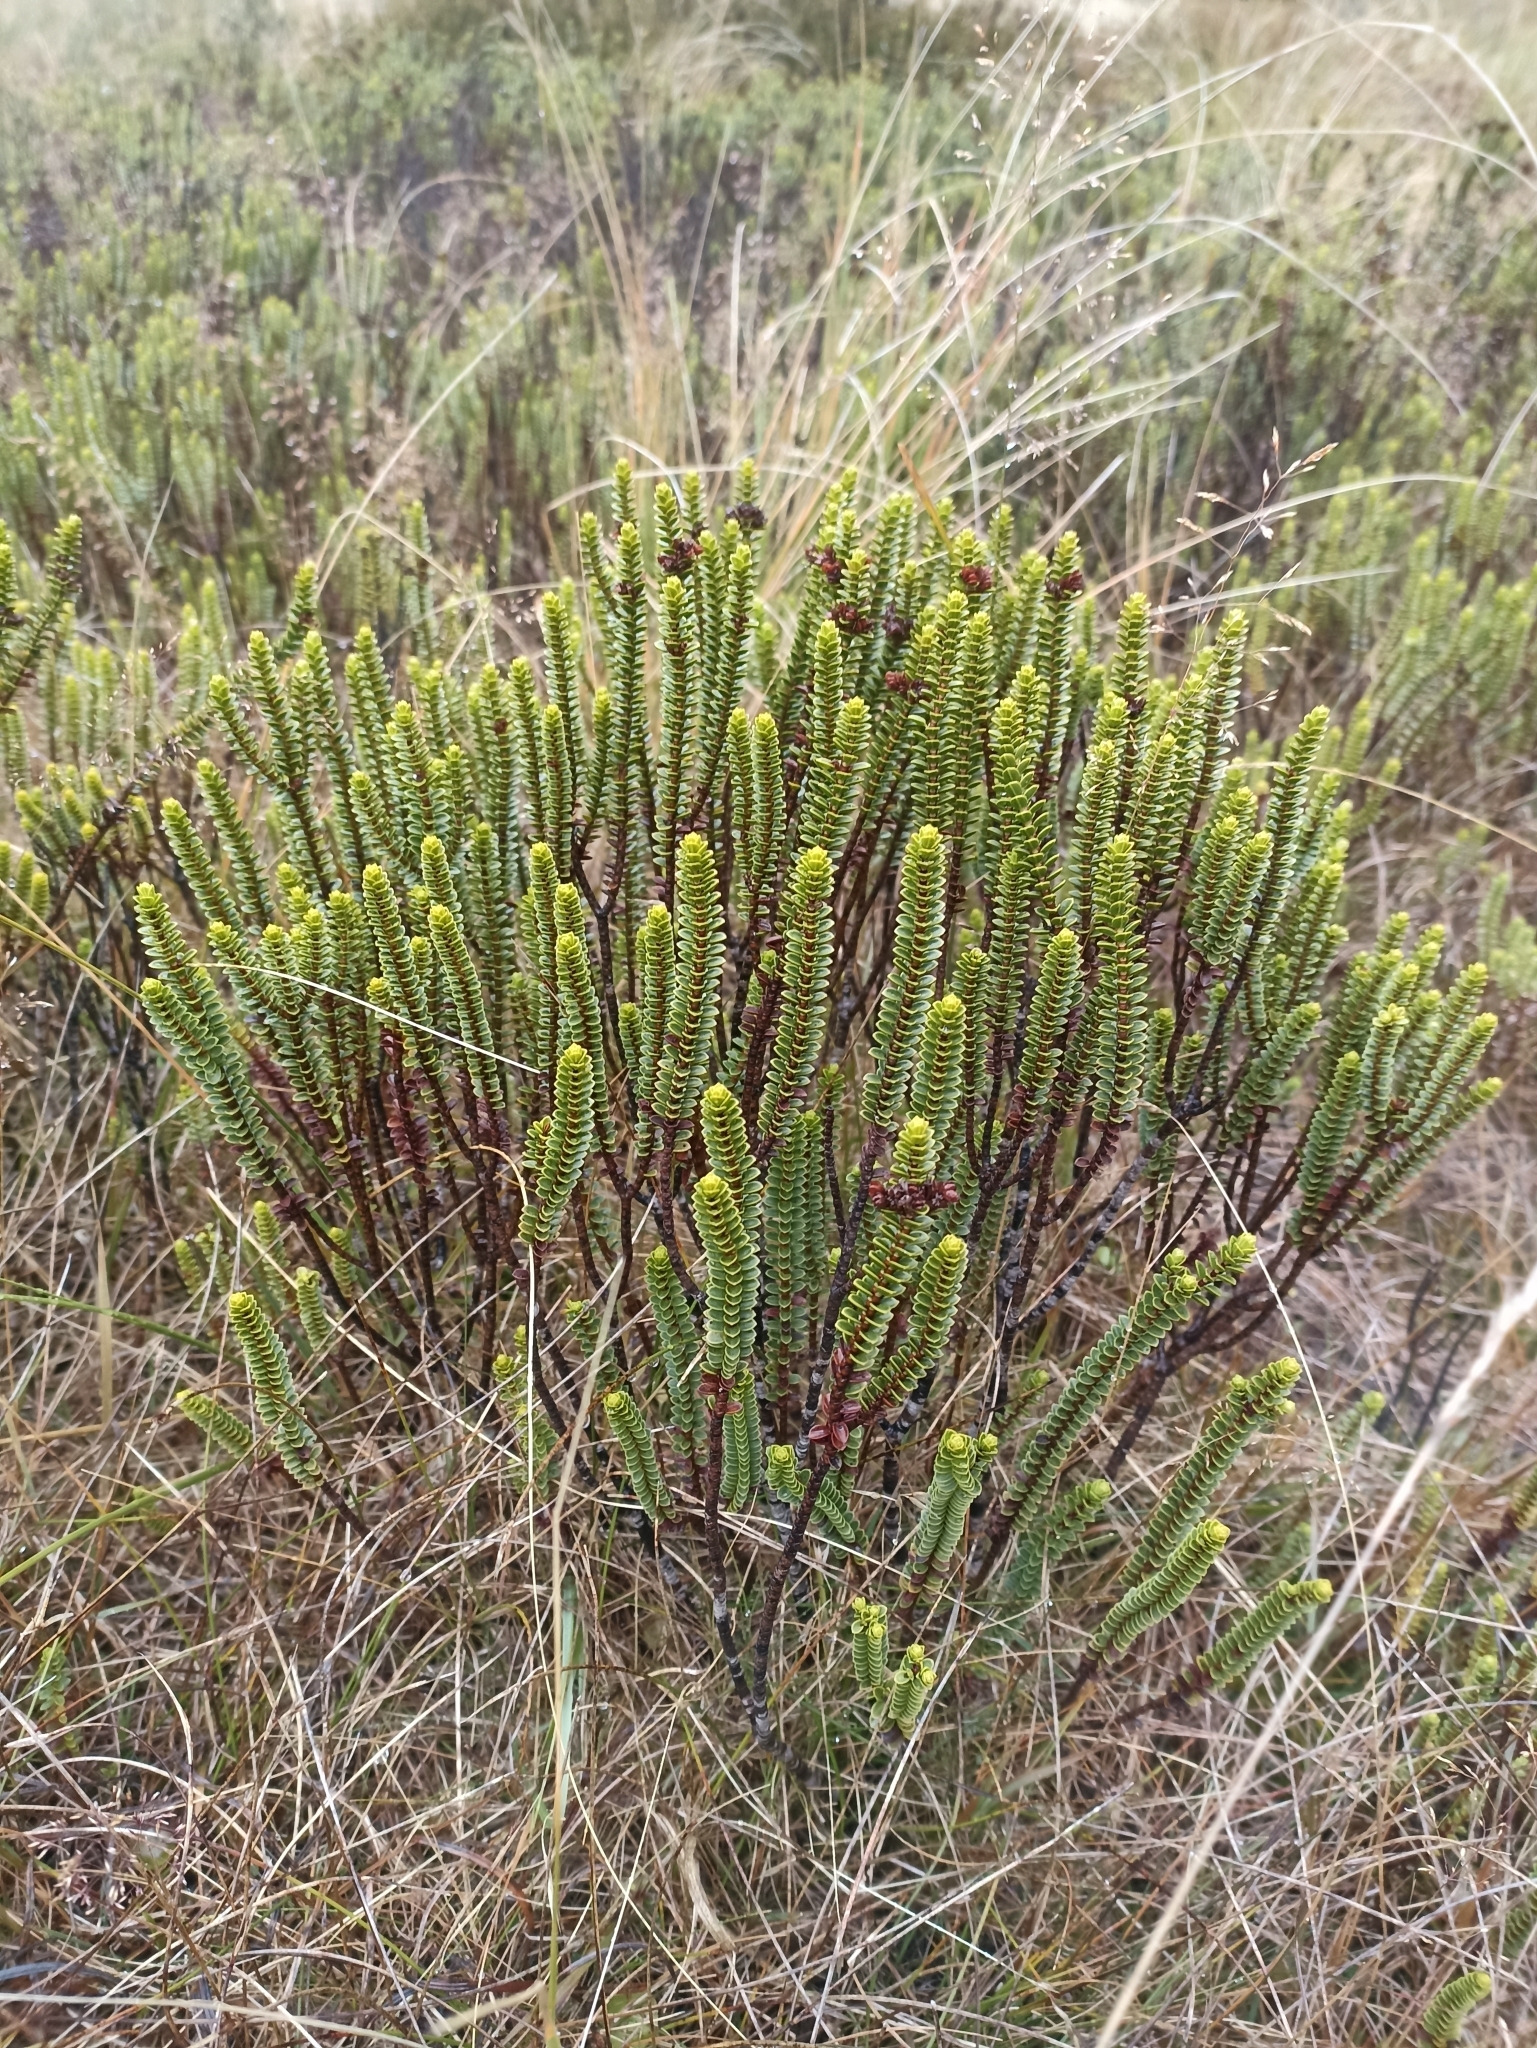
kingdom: Plantae
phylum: Tracheophyta
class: Magnoliopsida
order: Lamiales
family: Plantaginaceae
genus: Veronica
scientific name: Veronica pauciramosa
